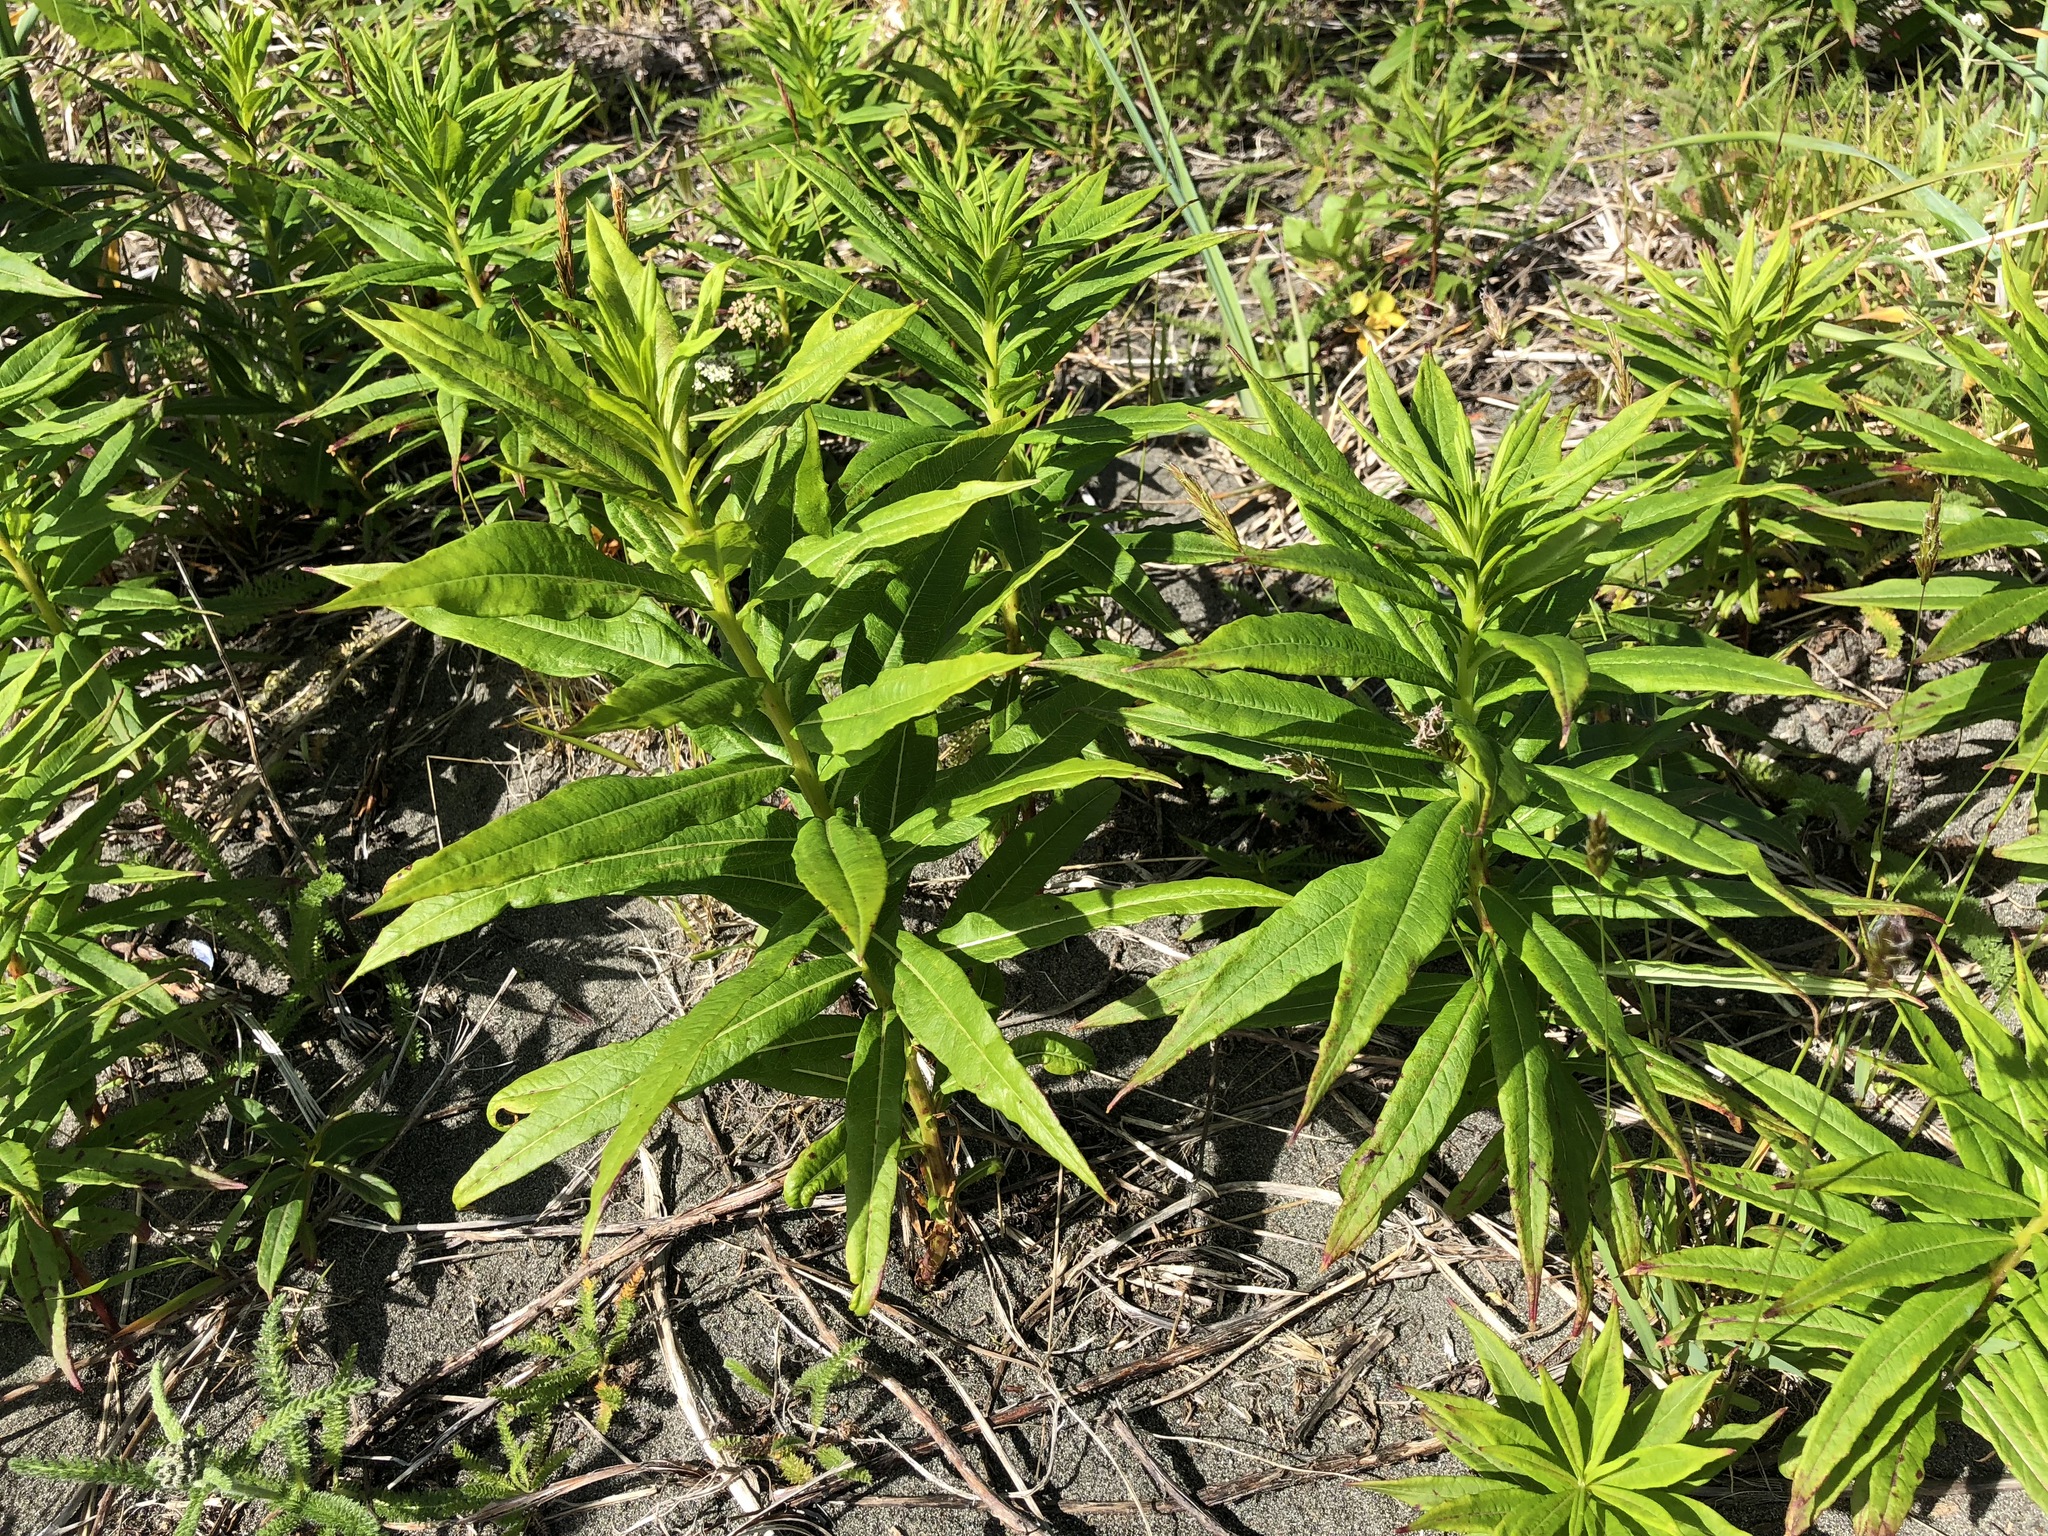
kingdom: Plantae
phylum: Tracheophyta
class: Magnoliopsida
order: Myrtales
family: Onagraceae
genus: Chamaenerion
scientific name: Chamaenerion angustifolium
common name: Fireweed
